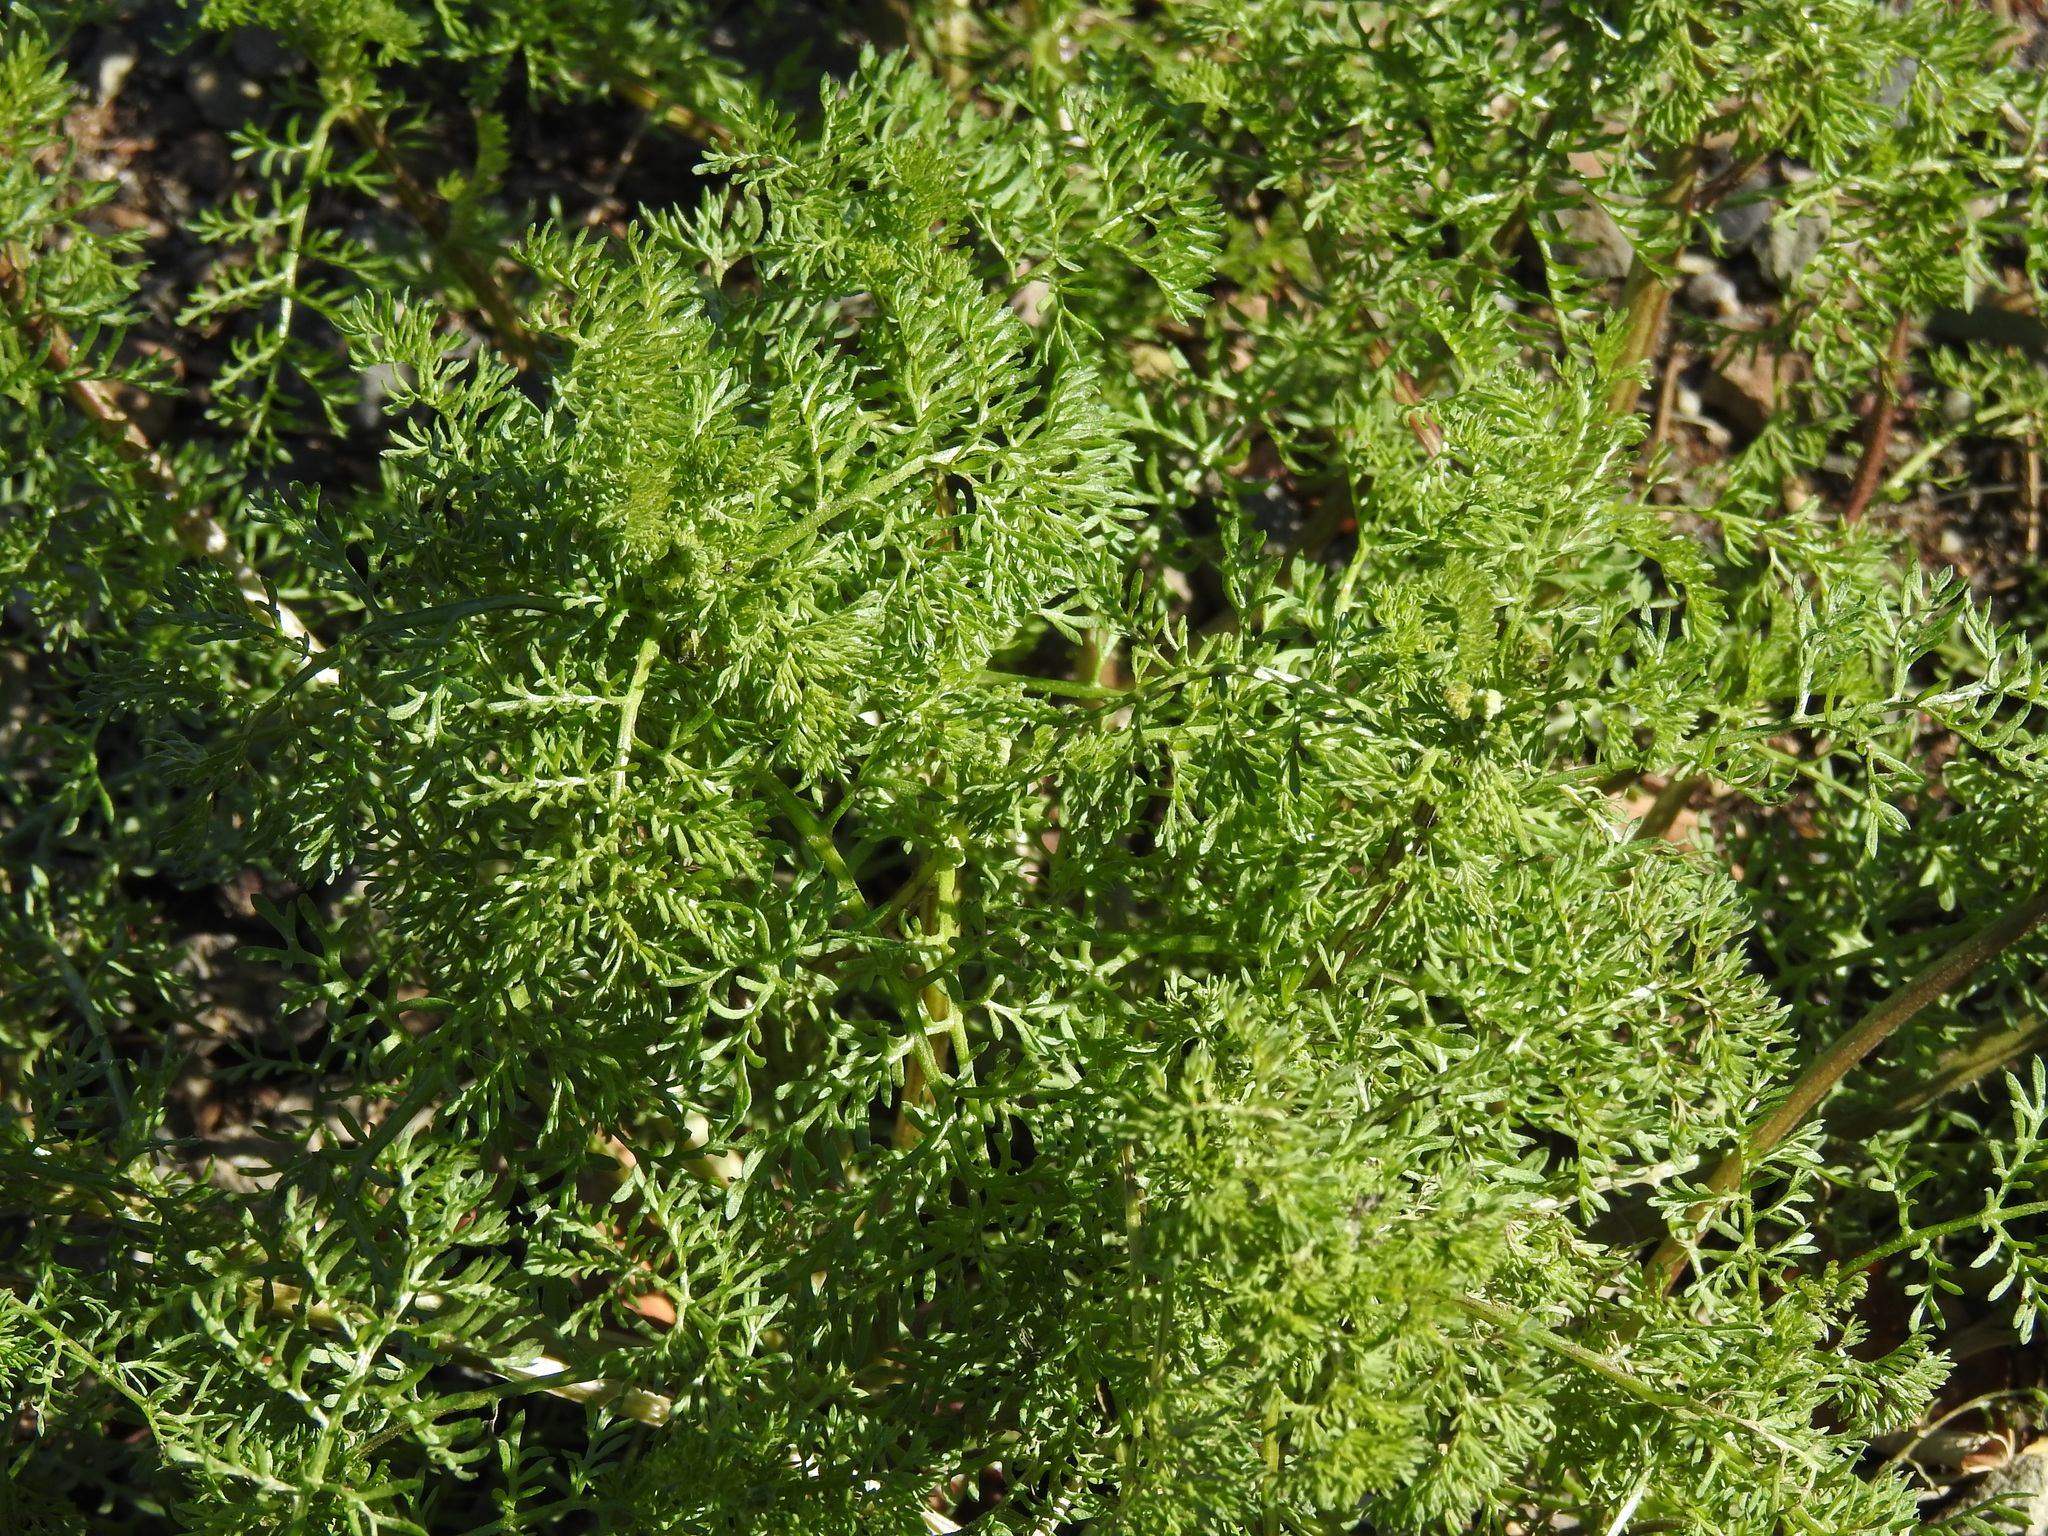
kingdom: Plantae
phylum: Tracheophyta
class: Magnoliopsida
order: Asterales
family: Asteraceae
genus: Oncosiphon
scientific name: Oncosiphon pilulifer
